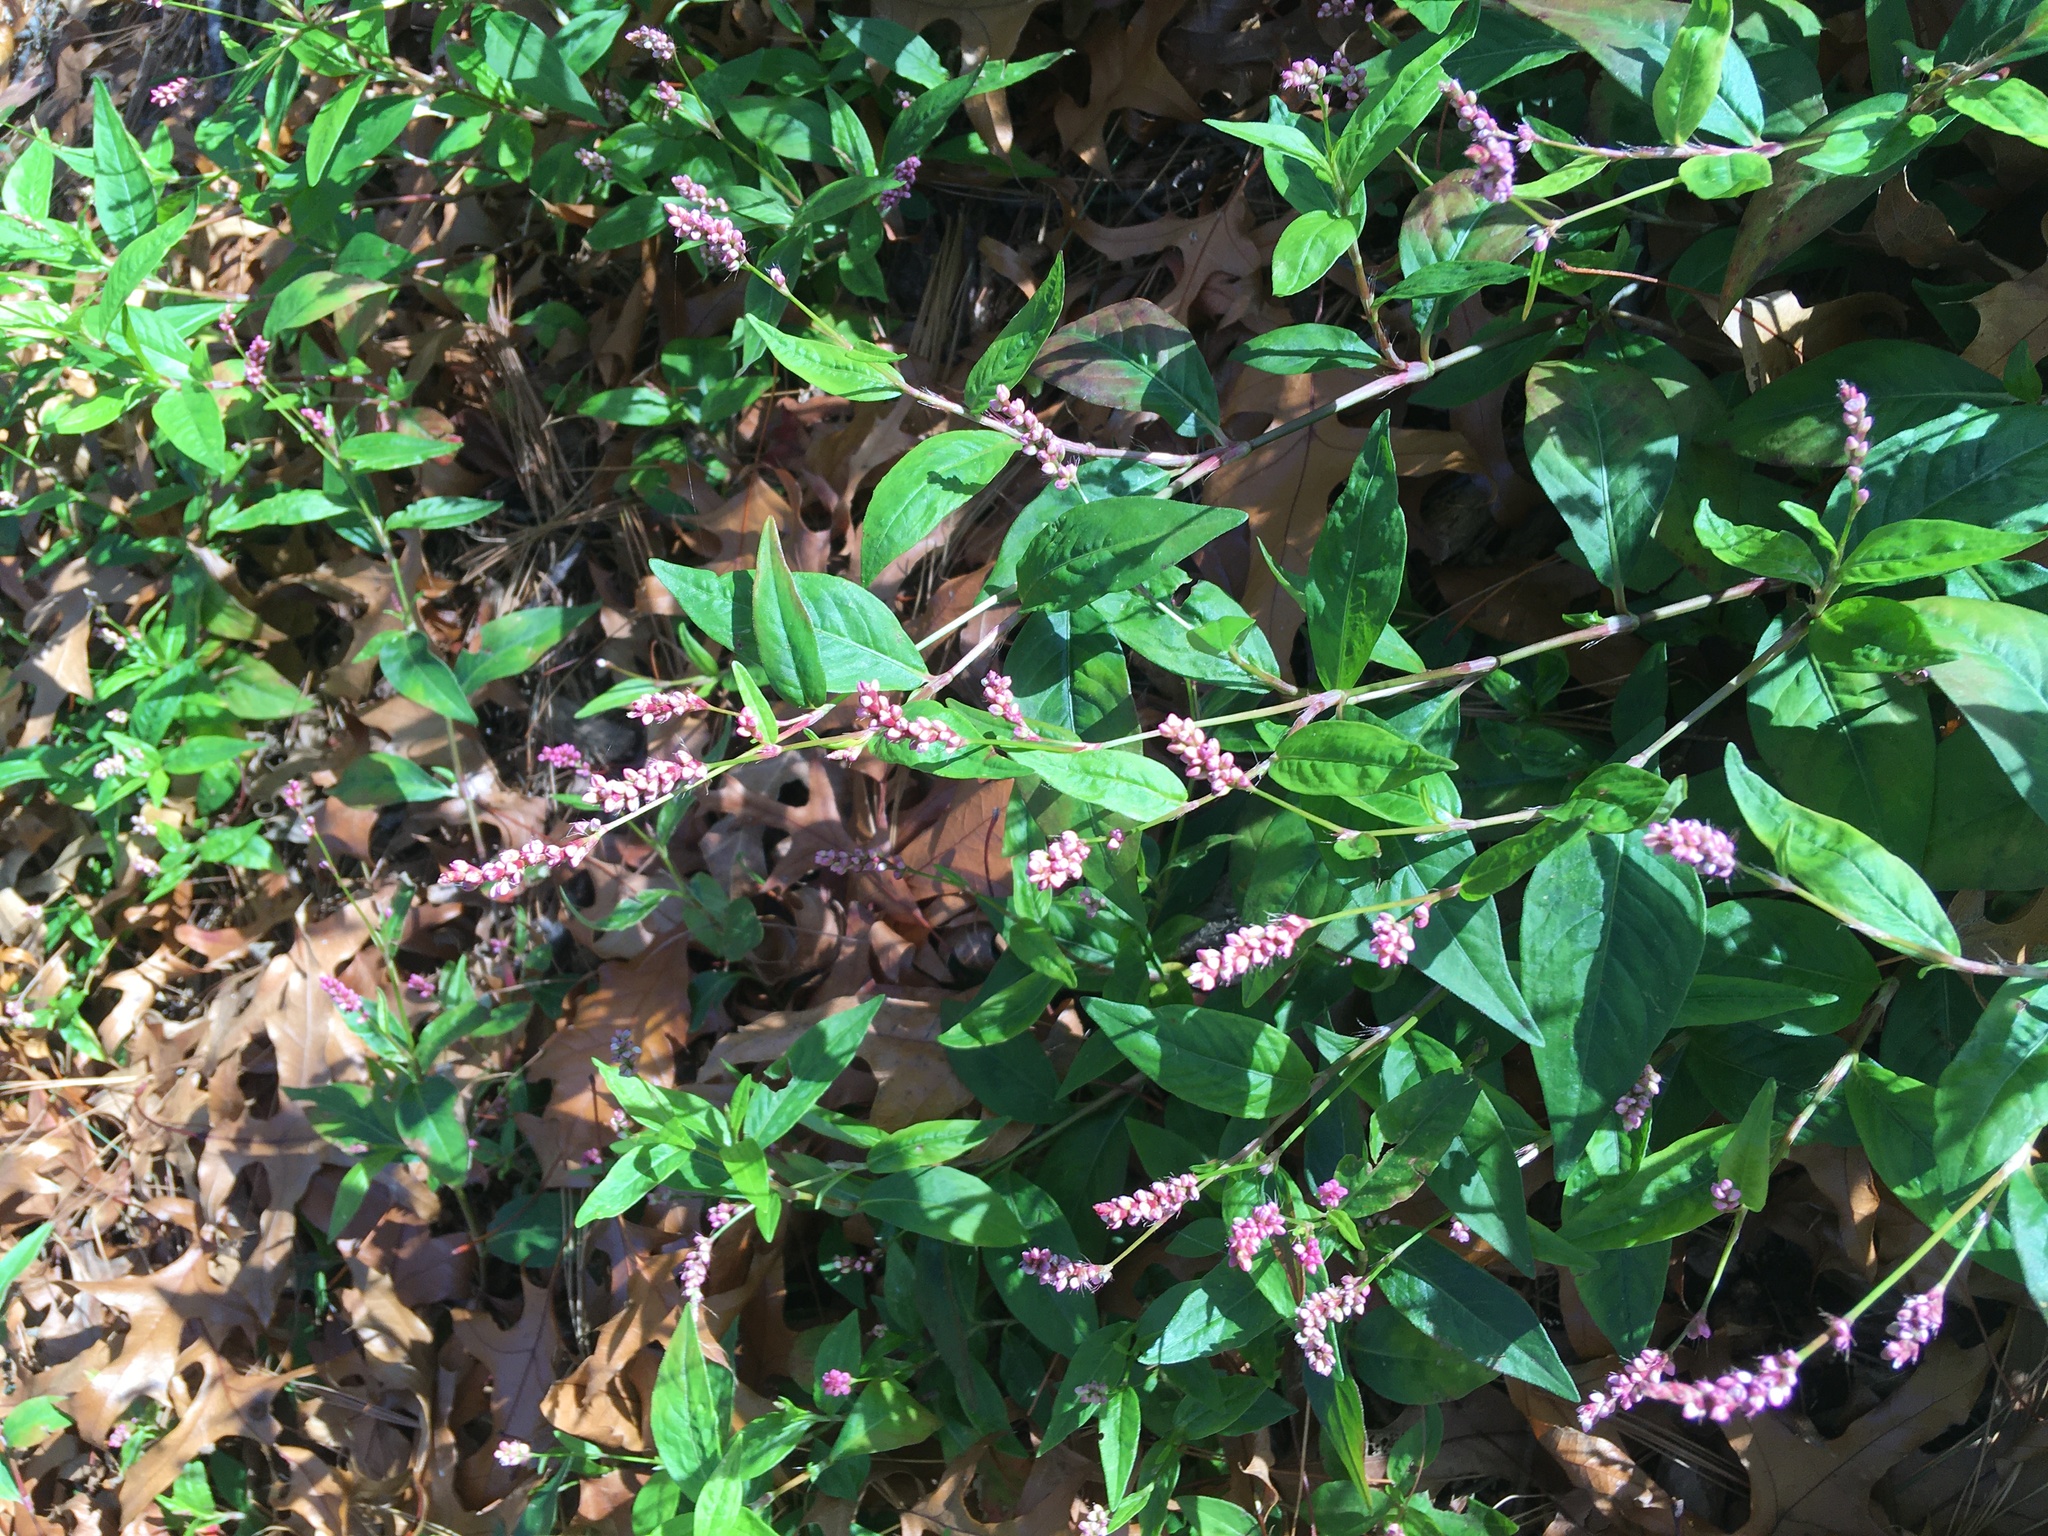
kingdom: Plantae
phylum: Tracheophyta
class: Magnoliopsida
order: Caryophyllales
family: Polygonaceae
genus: Persicaria
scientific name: Persicaria longiseta
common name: Bristly lady's-thumb
